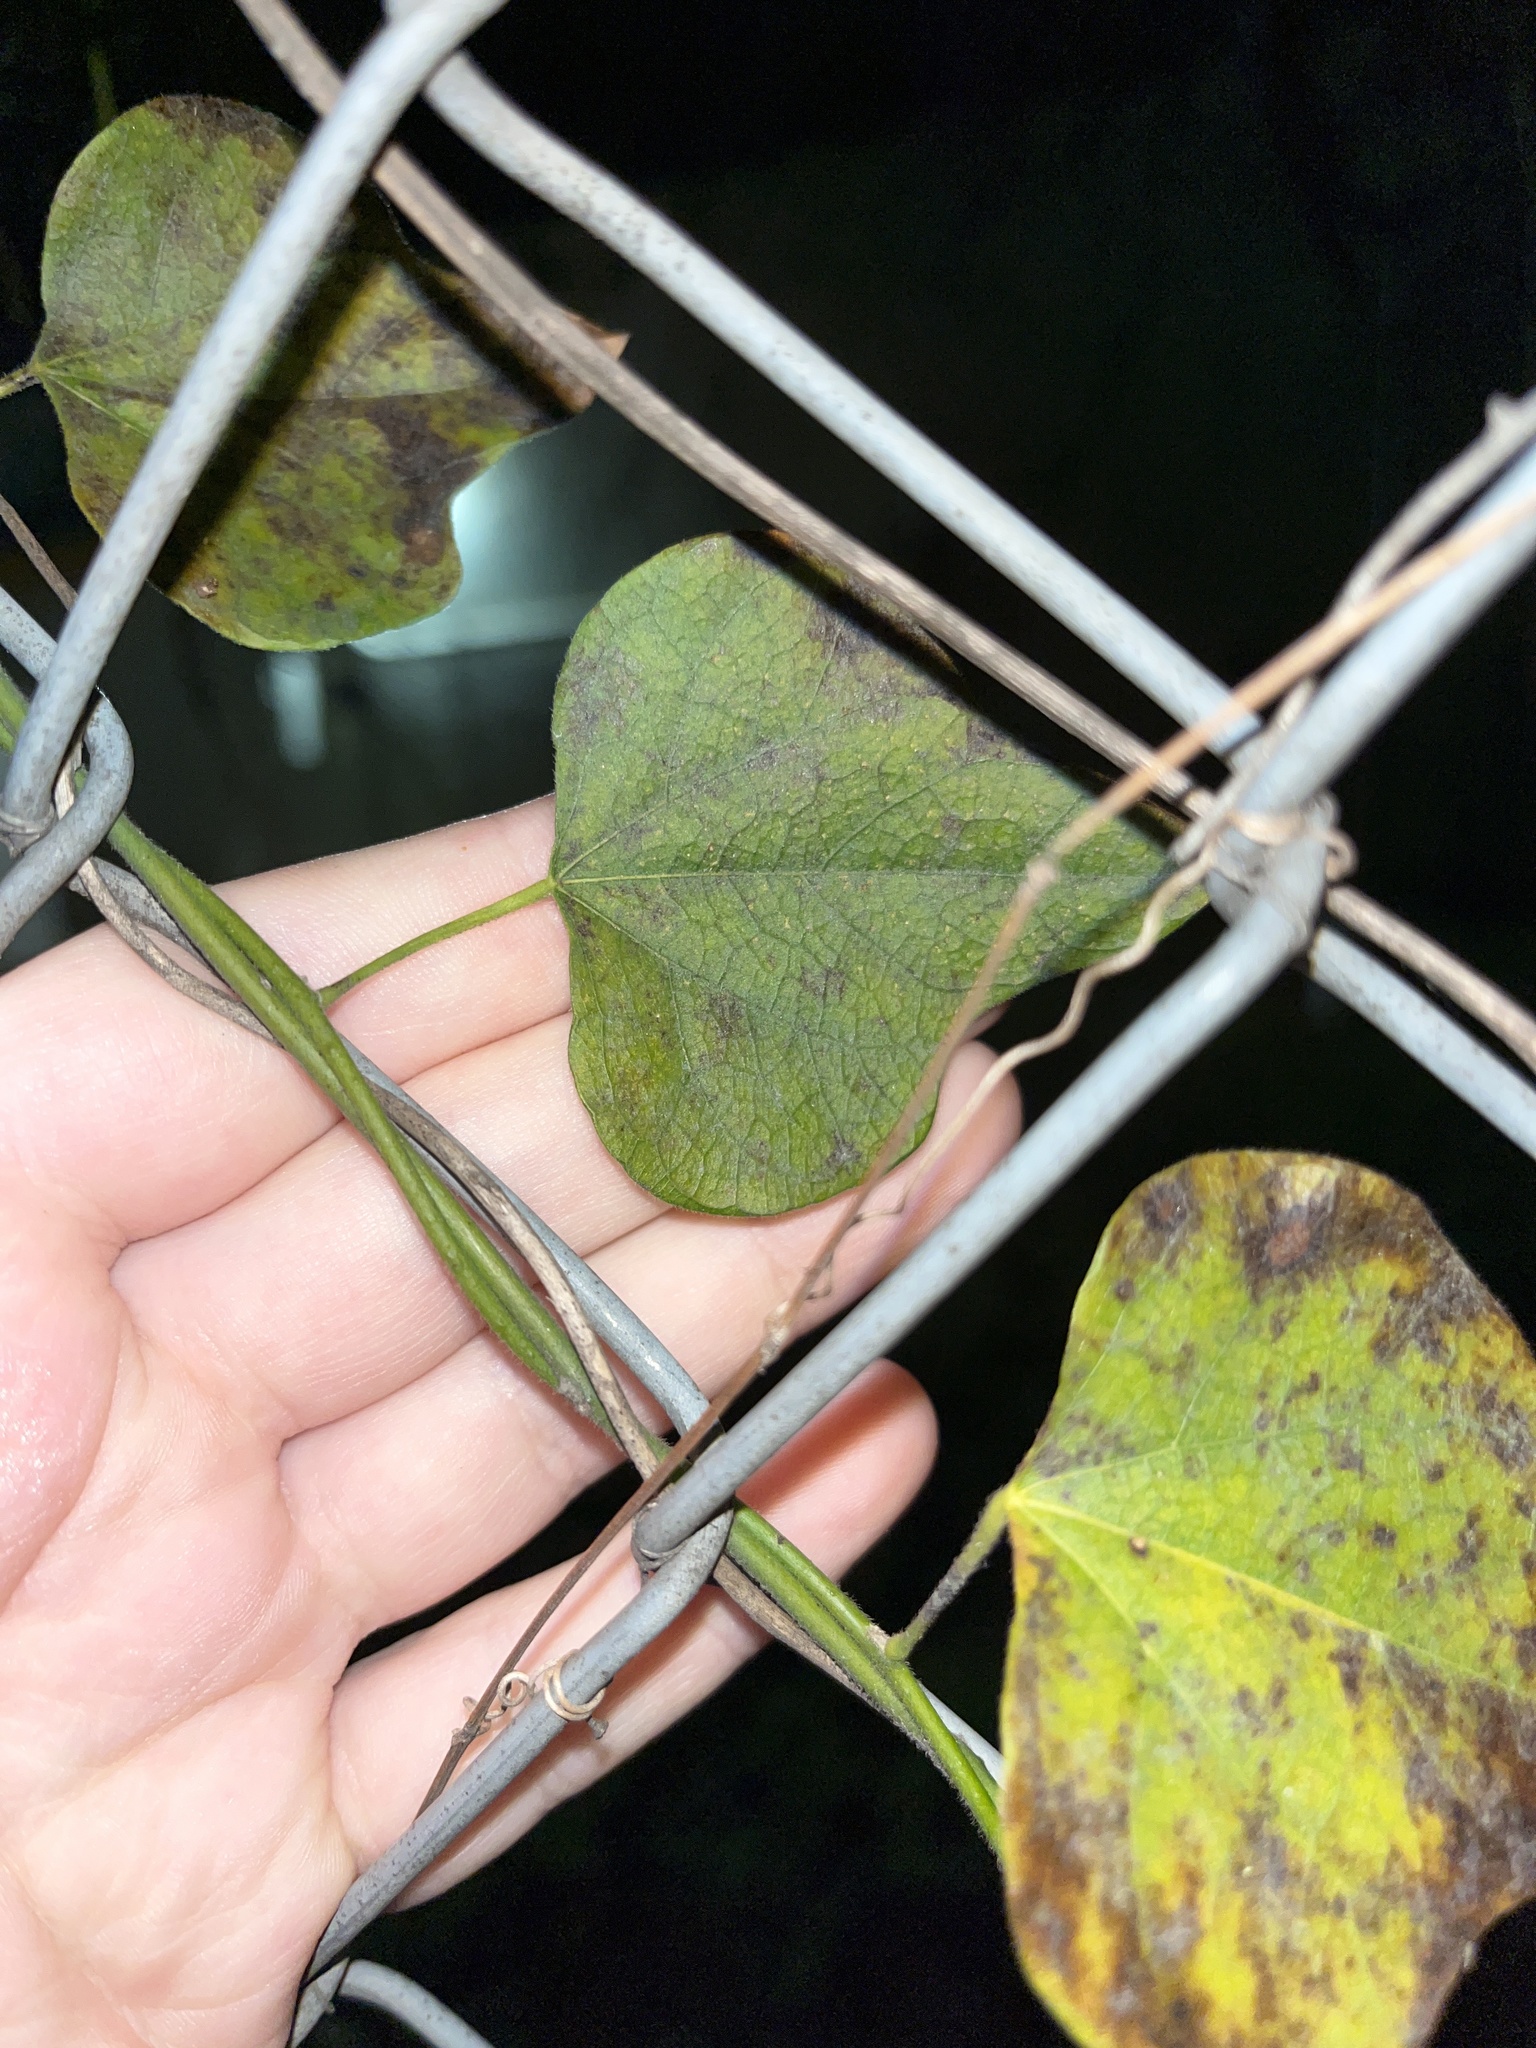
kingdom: Plantae
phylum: Tracheophyta
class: Magnoliopsida
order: Ranunculales
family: Menispermaceae
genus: Cocculus
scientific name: Cocculus carolinus
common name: Carolina moonseed
